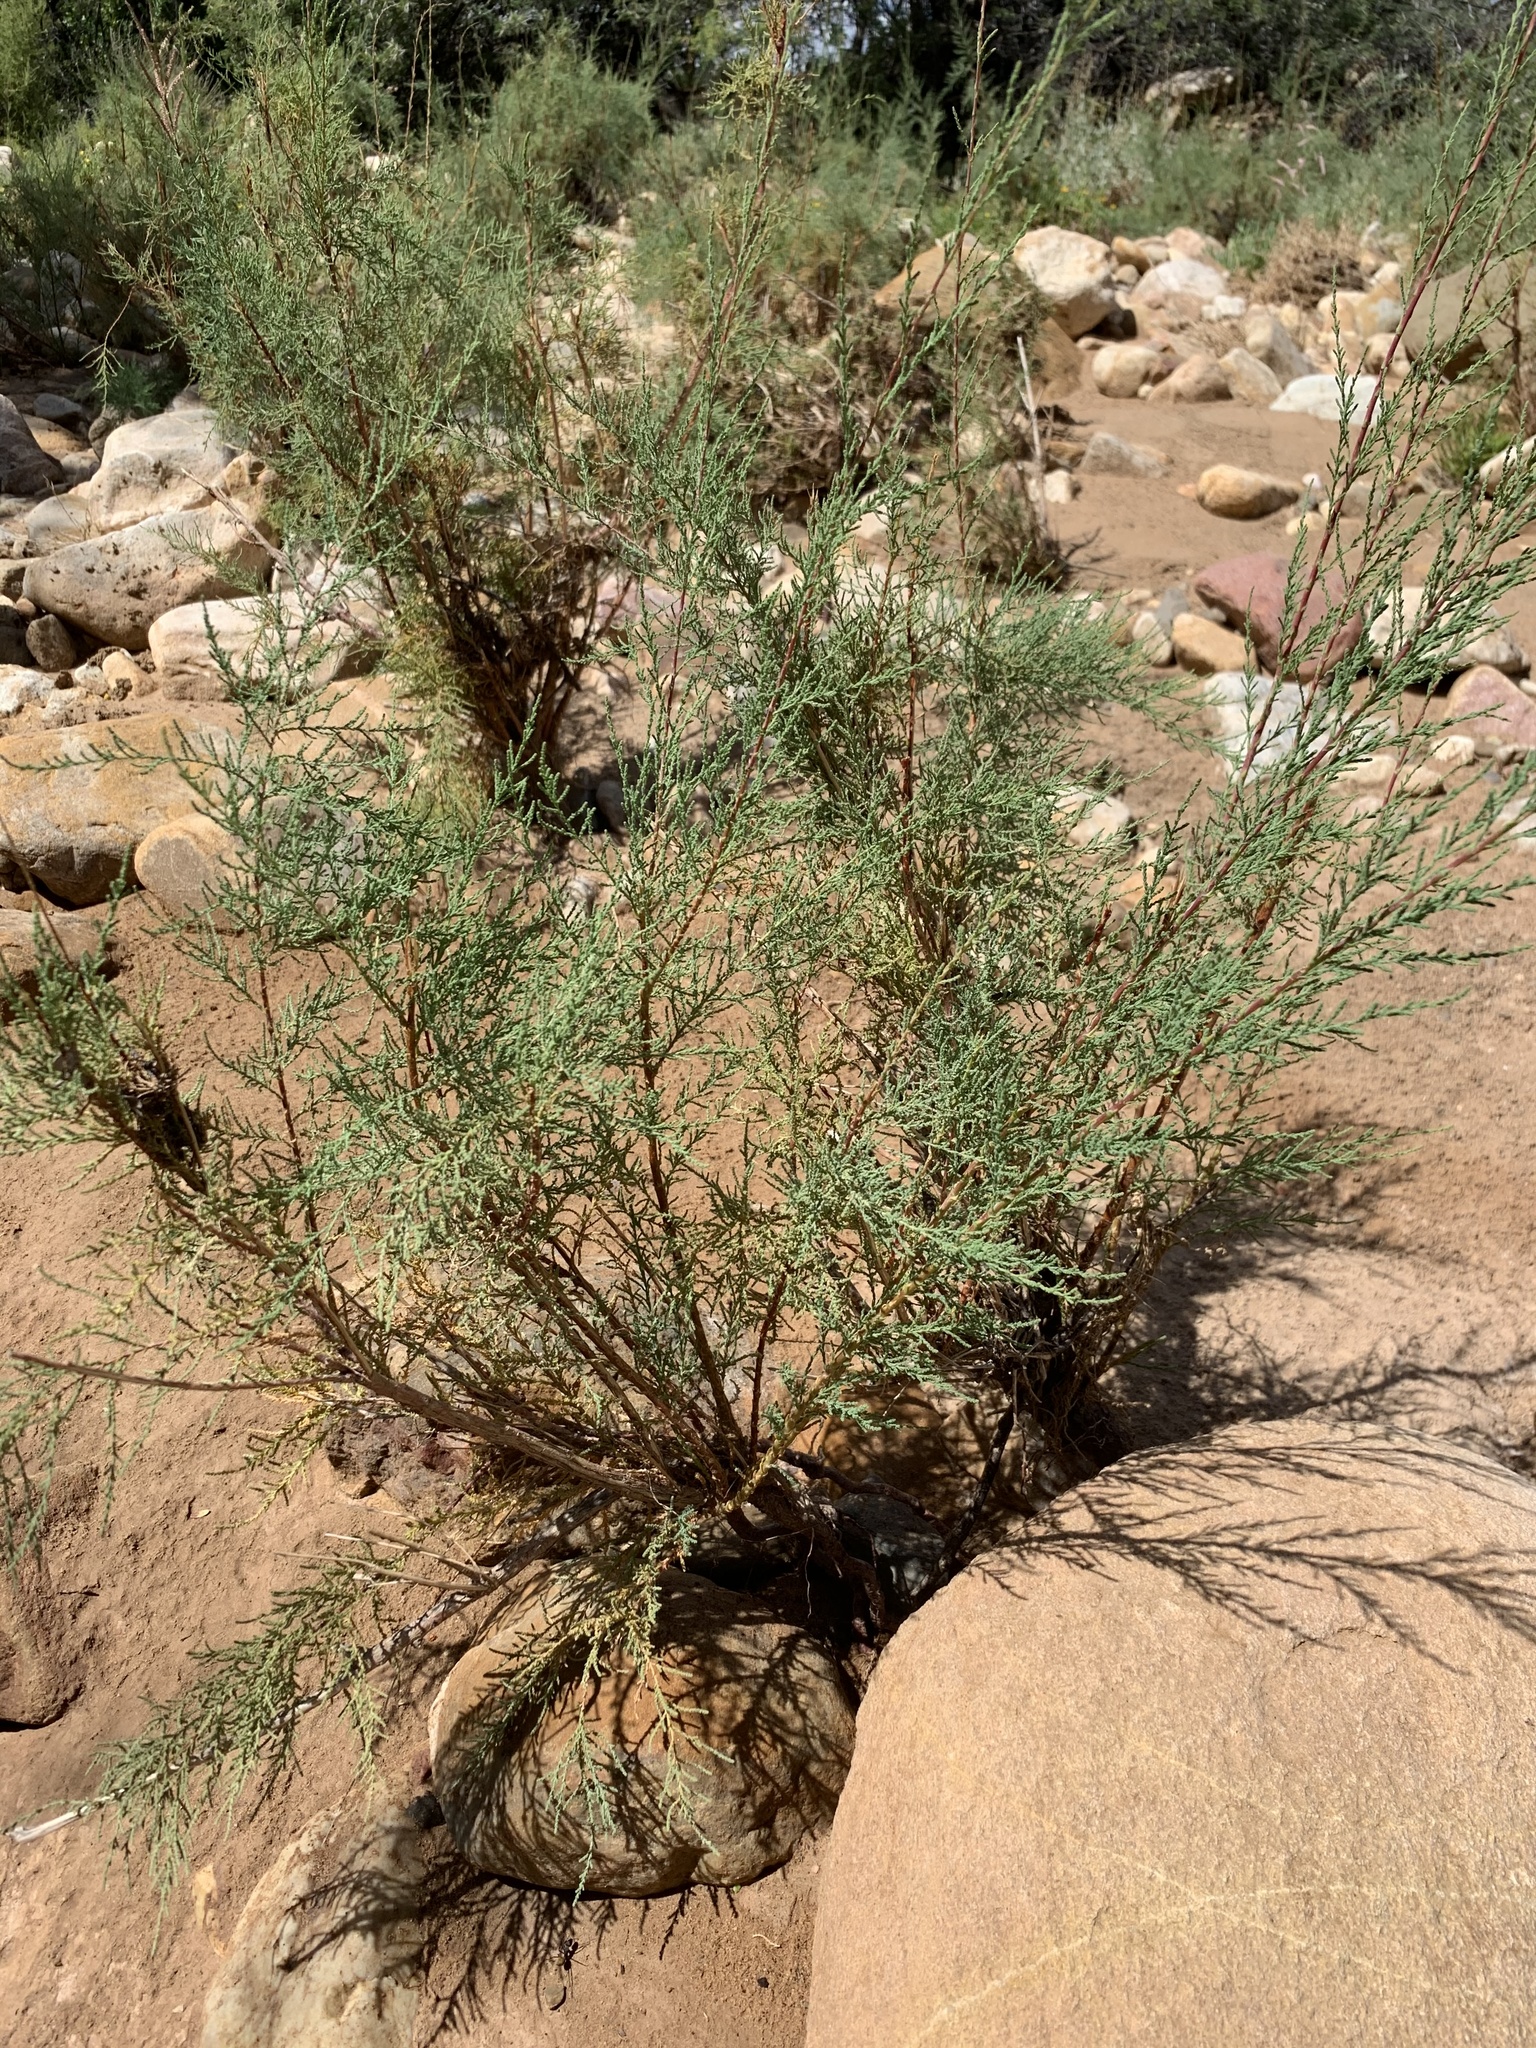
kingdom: Plantae
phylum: Tracheophyta
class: Magnoliopsida
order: Caryophyllales
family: Tamaricaceae
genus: Tamarix
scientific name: Tamarix ramosissima
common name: Pink tamarisk
